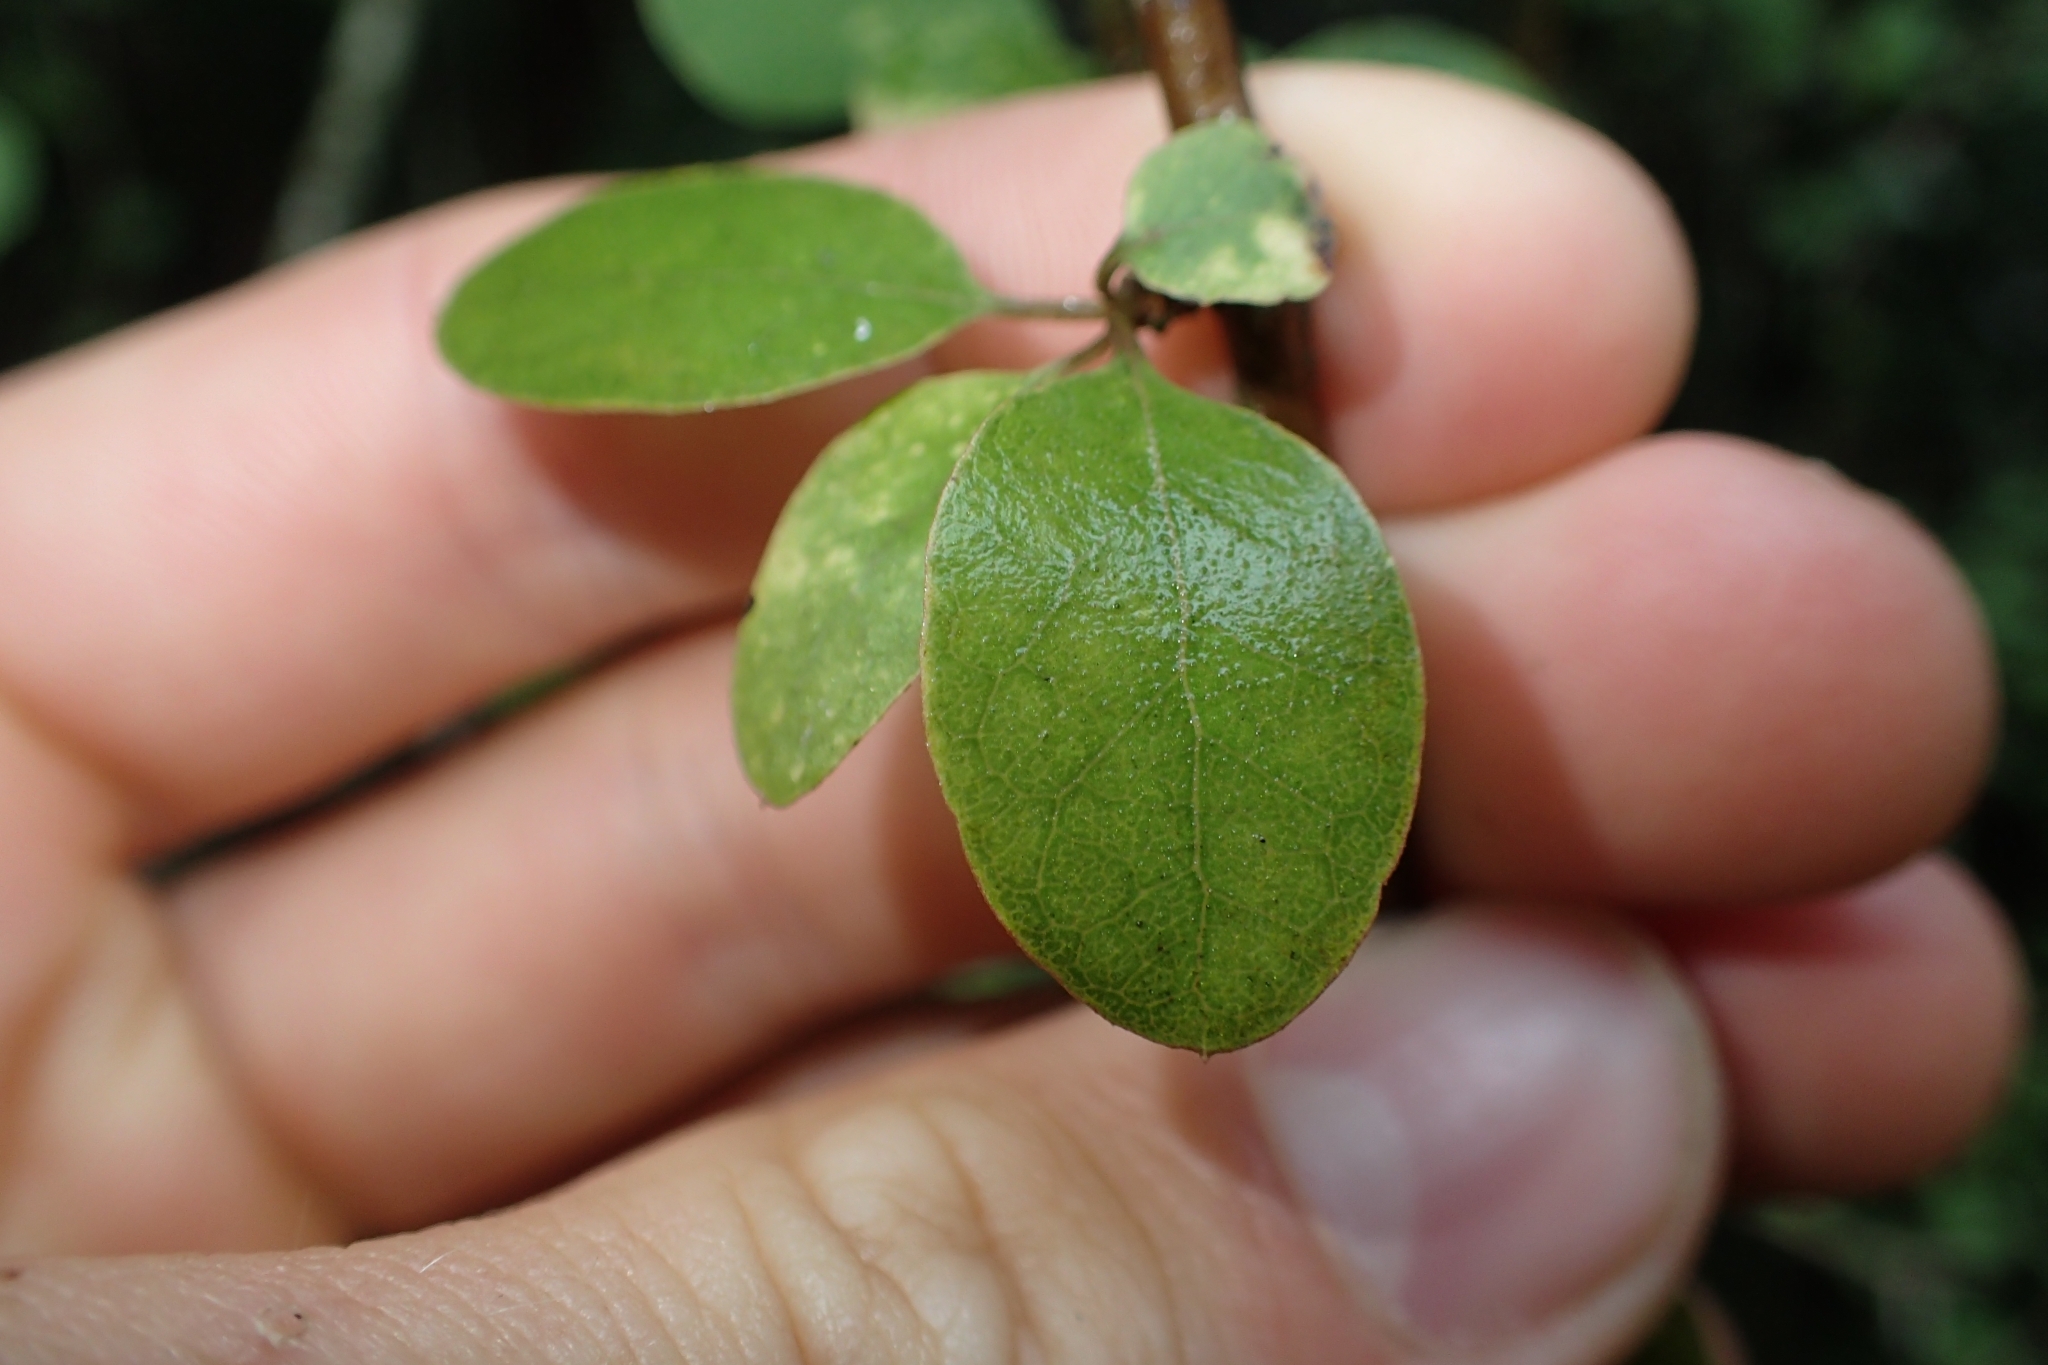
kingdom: Plantae
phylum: Tracheophyta
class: Magnoliopsida
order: Asterales
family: Asteraceae
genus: Olearia
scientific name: Olearia gardneri
